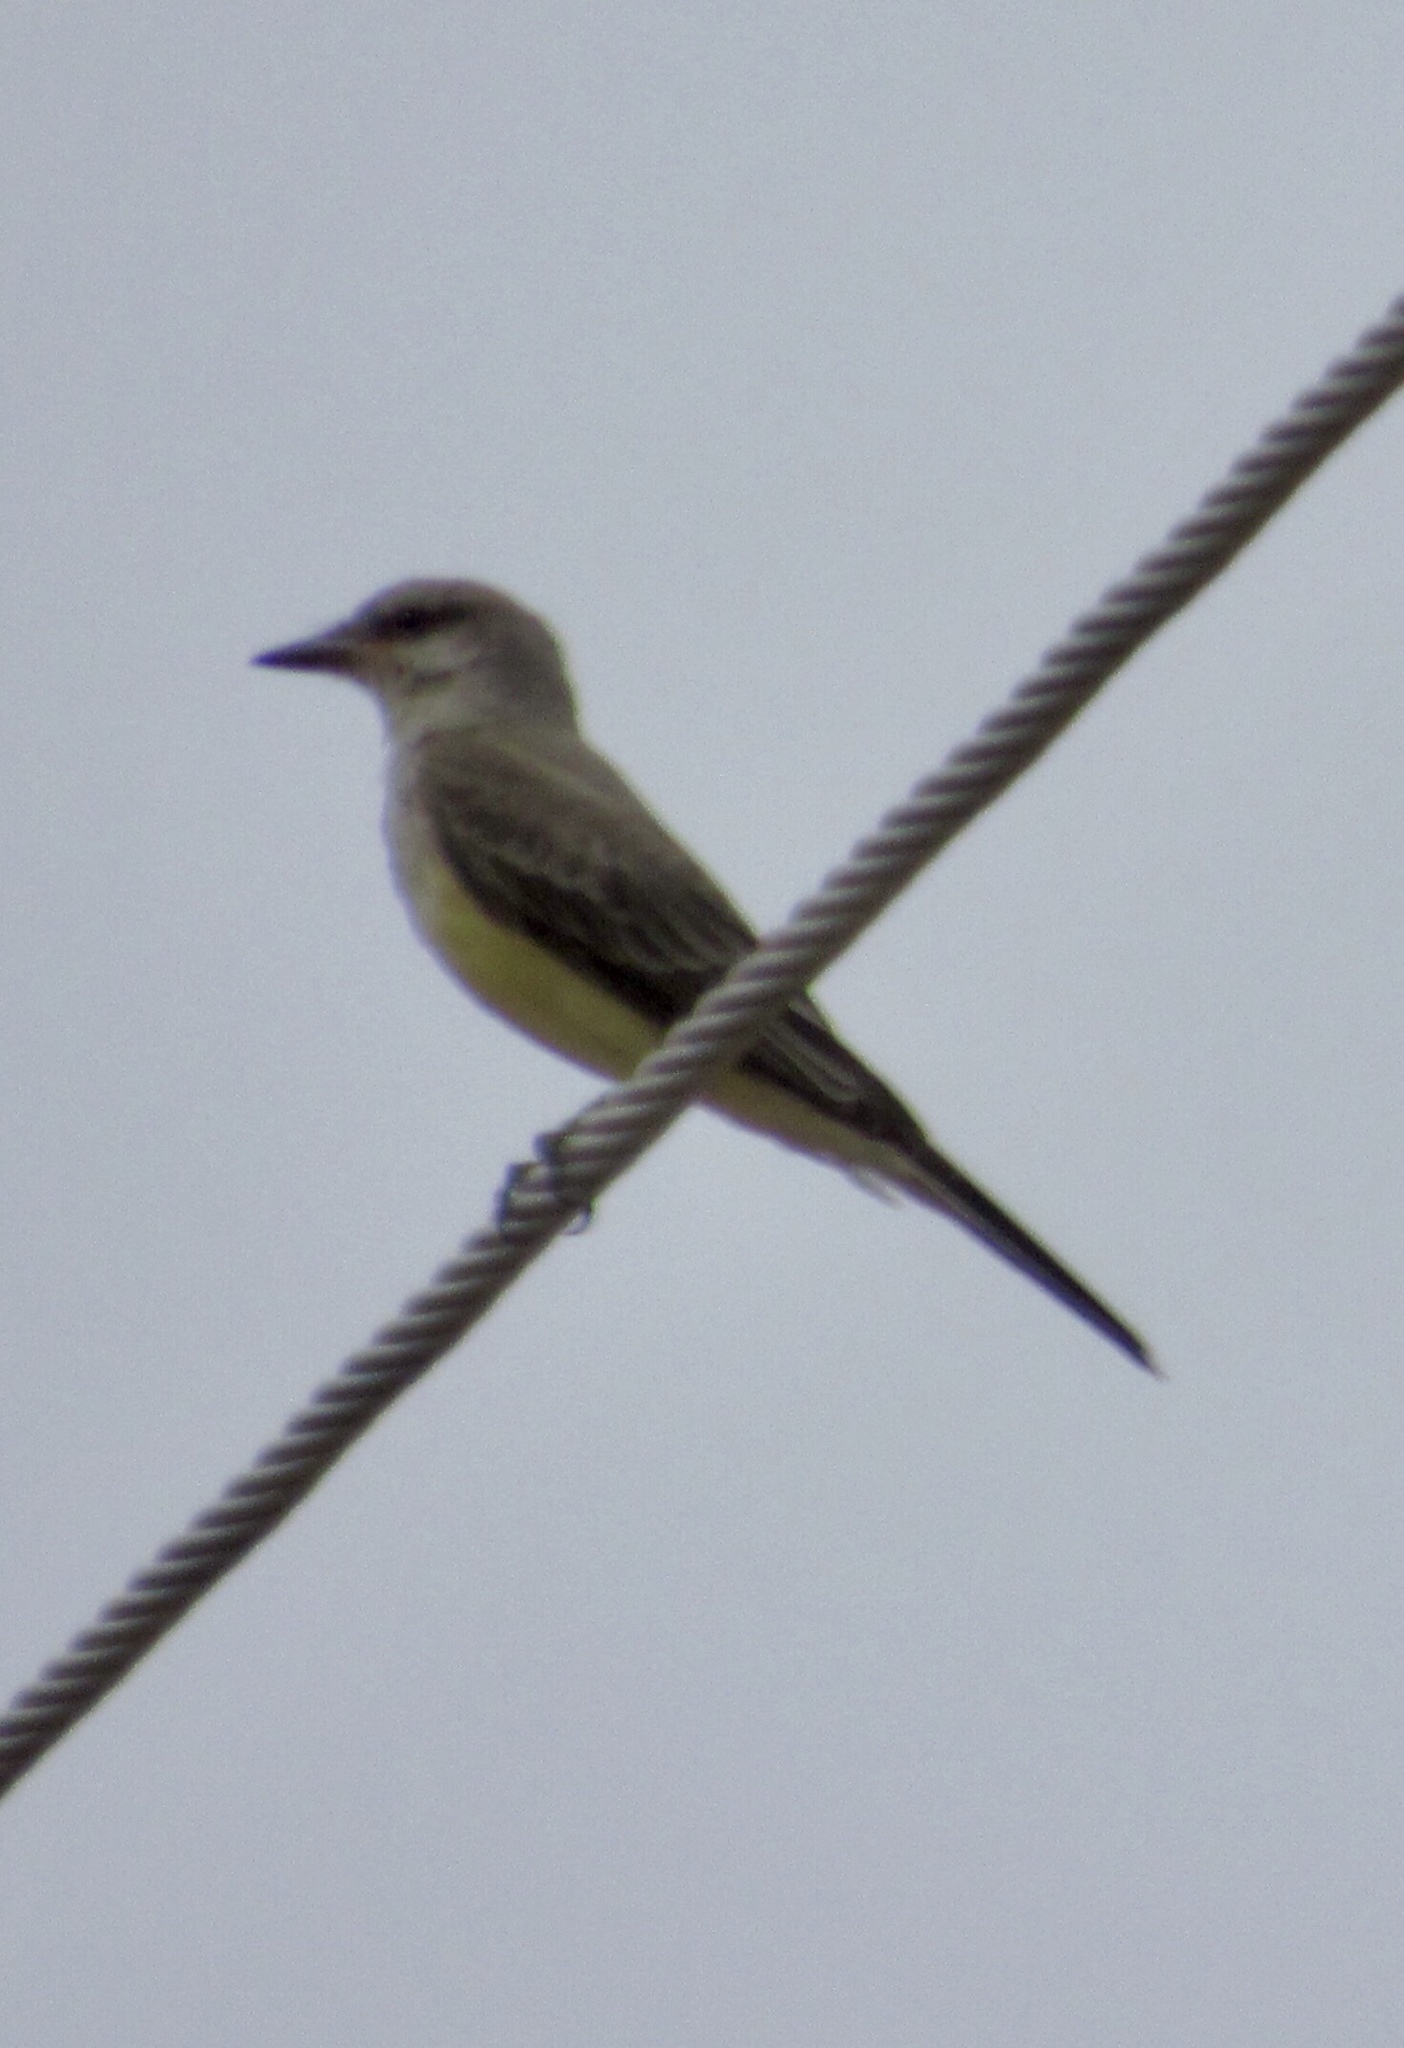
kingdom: Animalia
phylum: Chordata
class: Aves
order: Passeriformes
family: Tyrannidae
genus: Tyrannus
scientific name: Tyrannus verticalis
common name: Western kingbird
